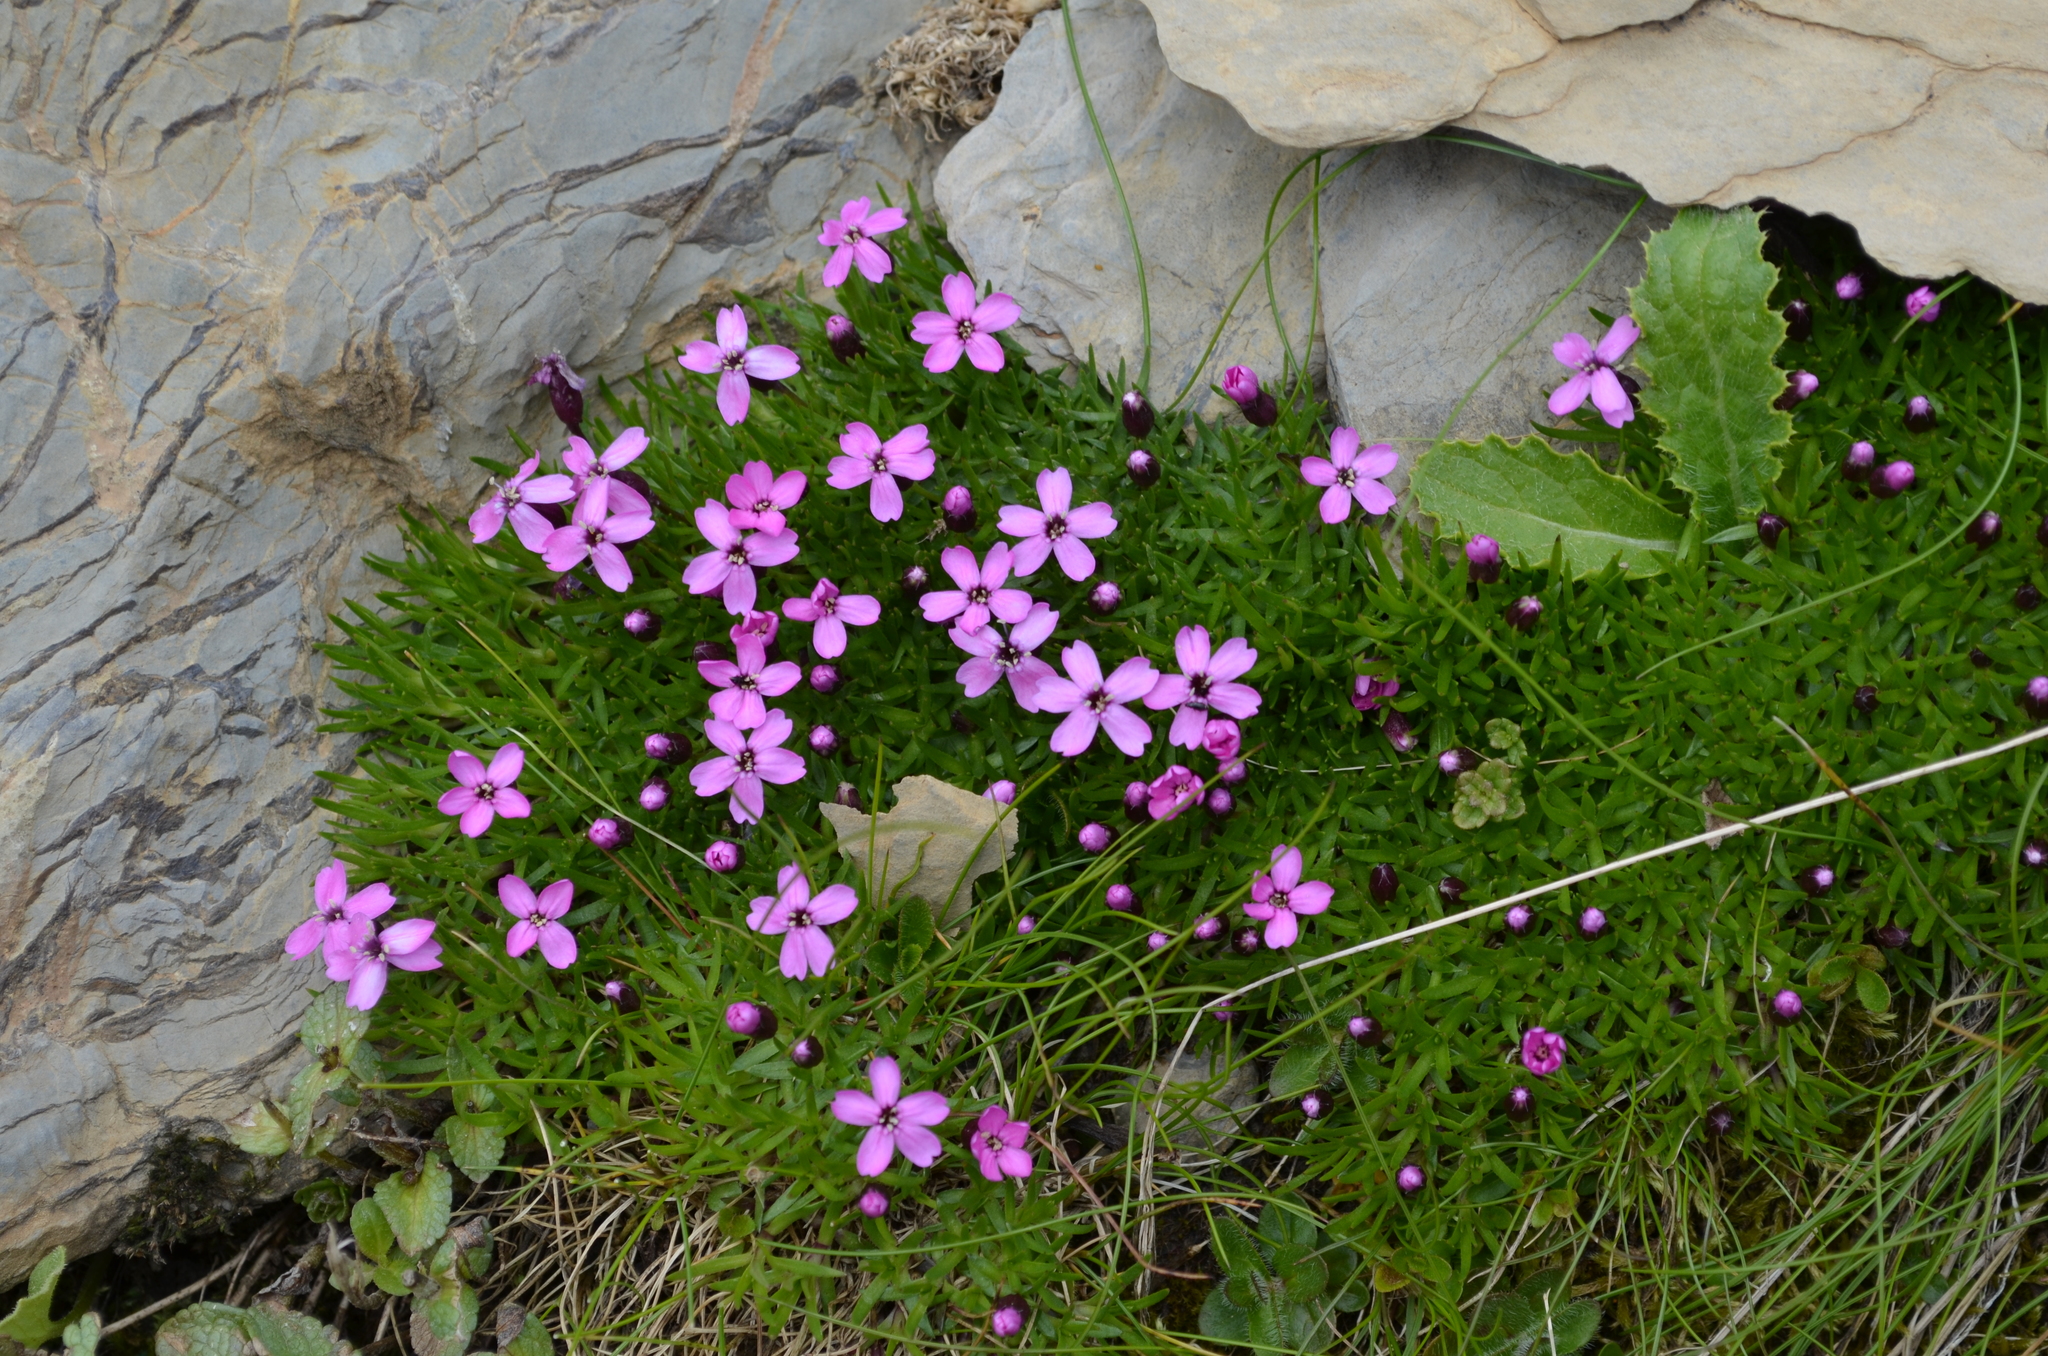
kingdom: Plantae
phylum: Tracheophyta
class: Magnoliopsida
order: Caryophyllales
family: Caryophyllaceae
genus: Silene
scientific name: Silene acaulis
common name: Moss campion
